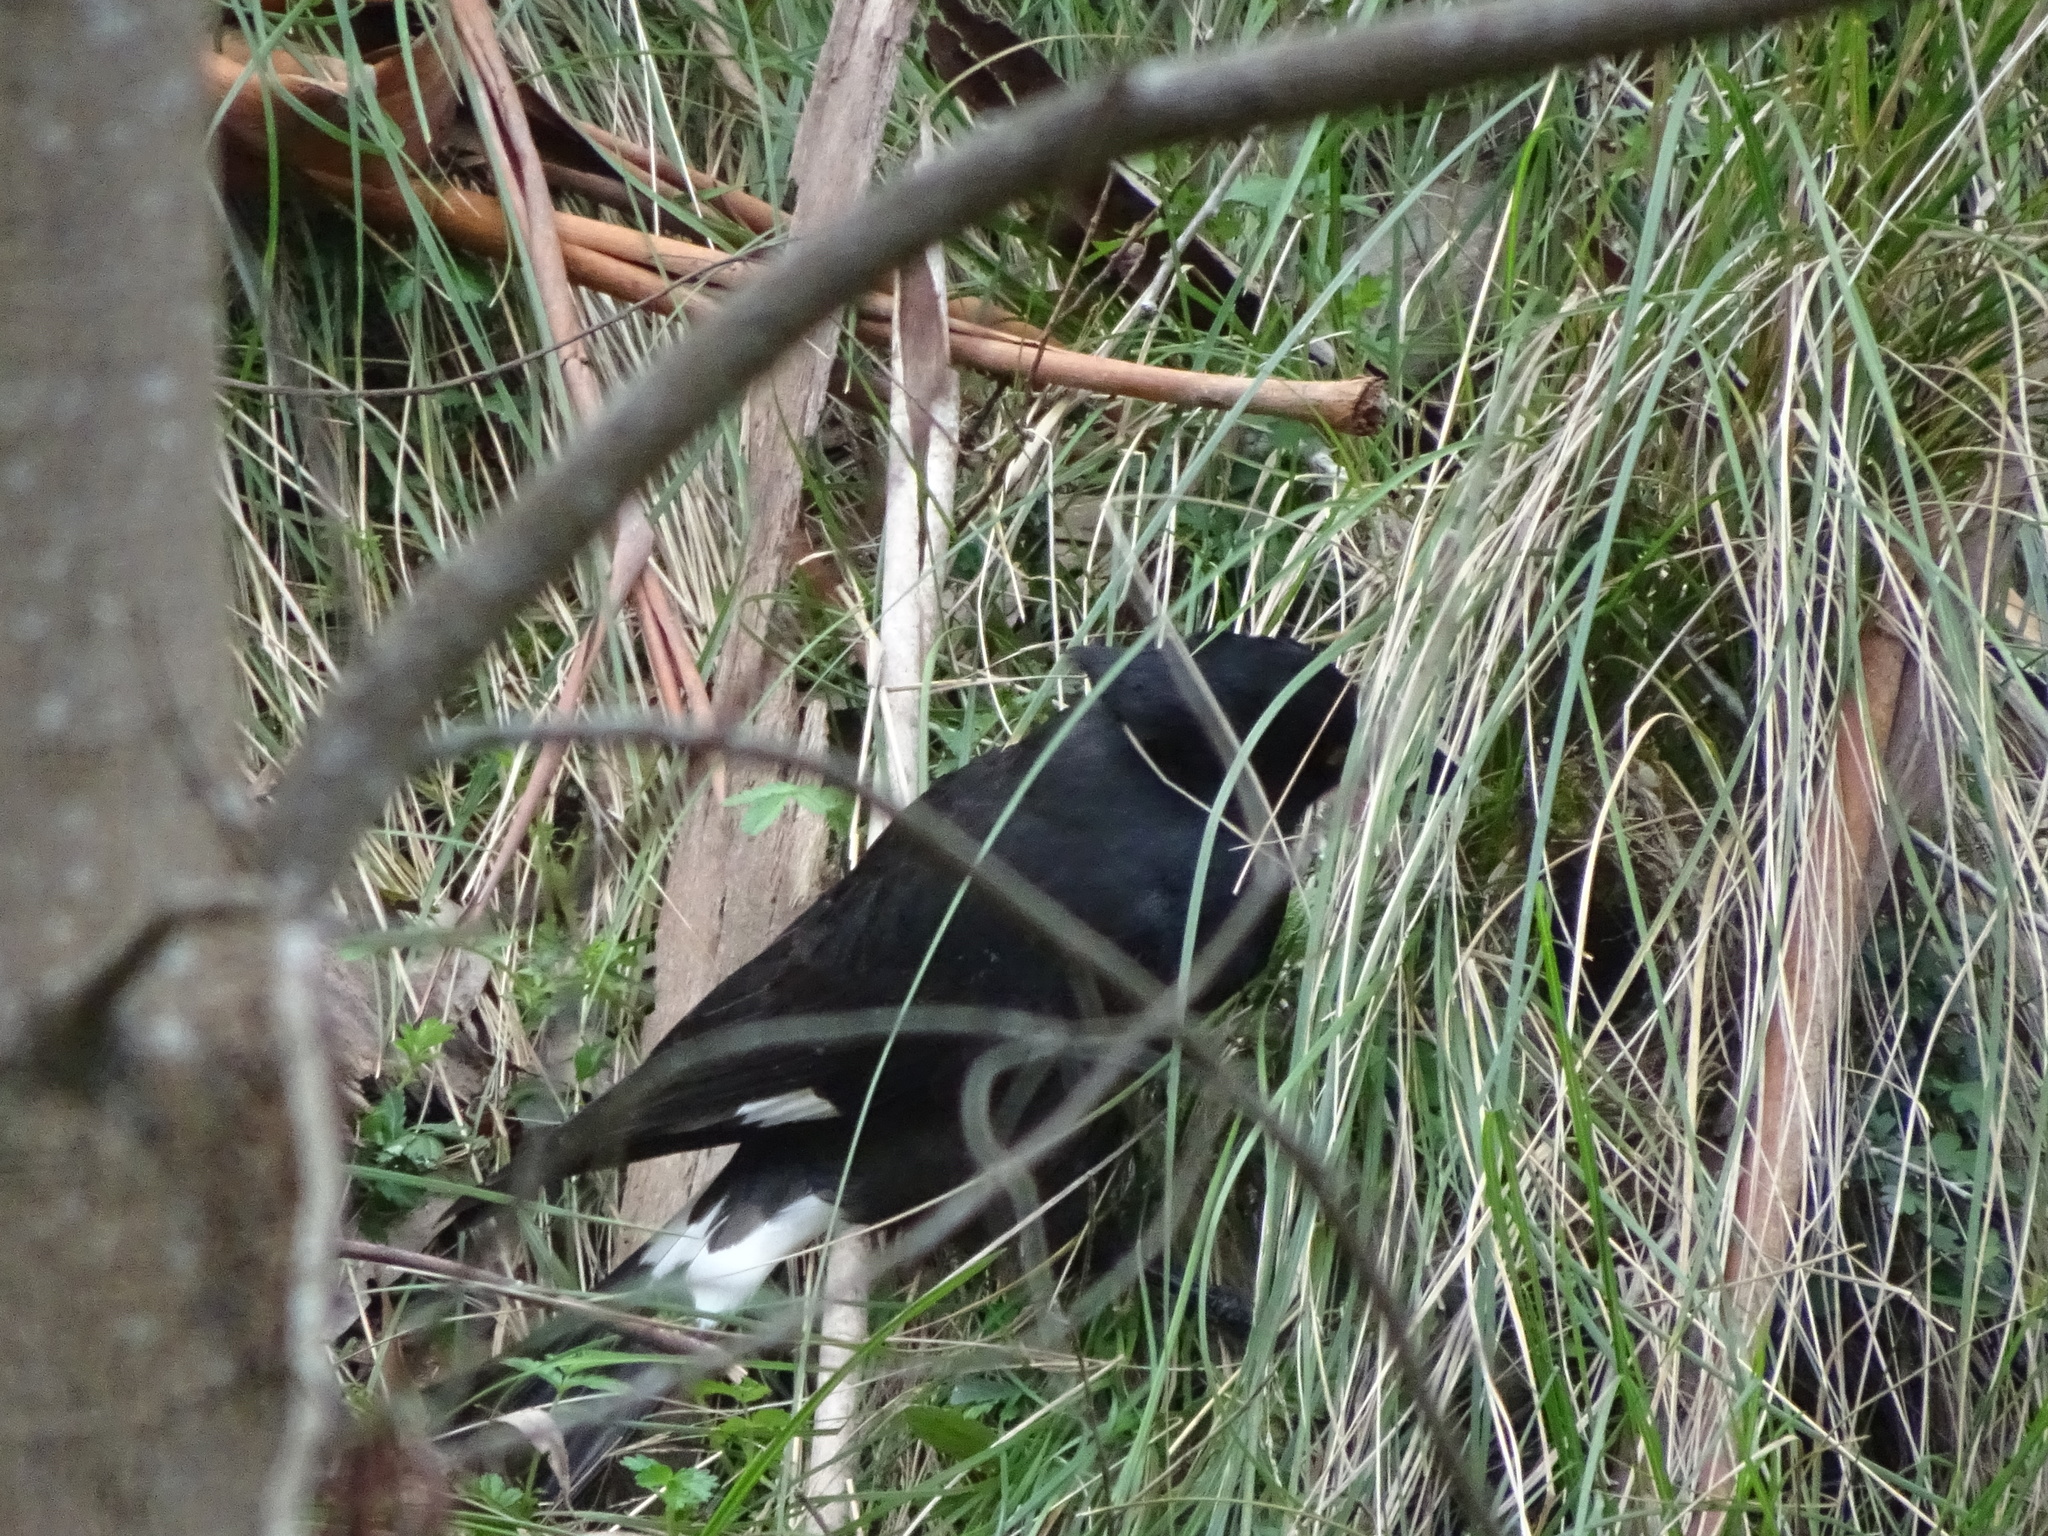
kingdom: Animalia
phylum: Chordata
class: Aves
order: Passeriformes
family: Cracticidae
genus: Strepera
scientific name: Strepera graculina
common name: Pied currawong
